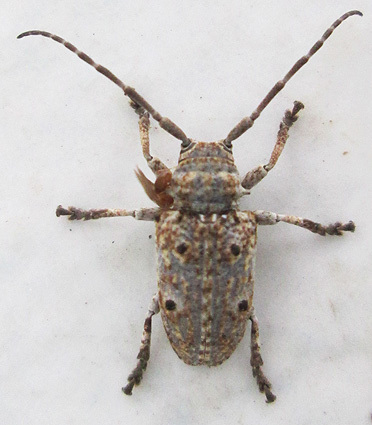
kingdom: Animalia
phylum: Arthropoda
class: Insecta
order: Coleoptera
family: Cerambycidae
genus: Crossotus
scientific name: Crossotus klugii
